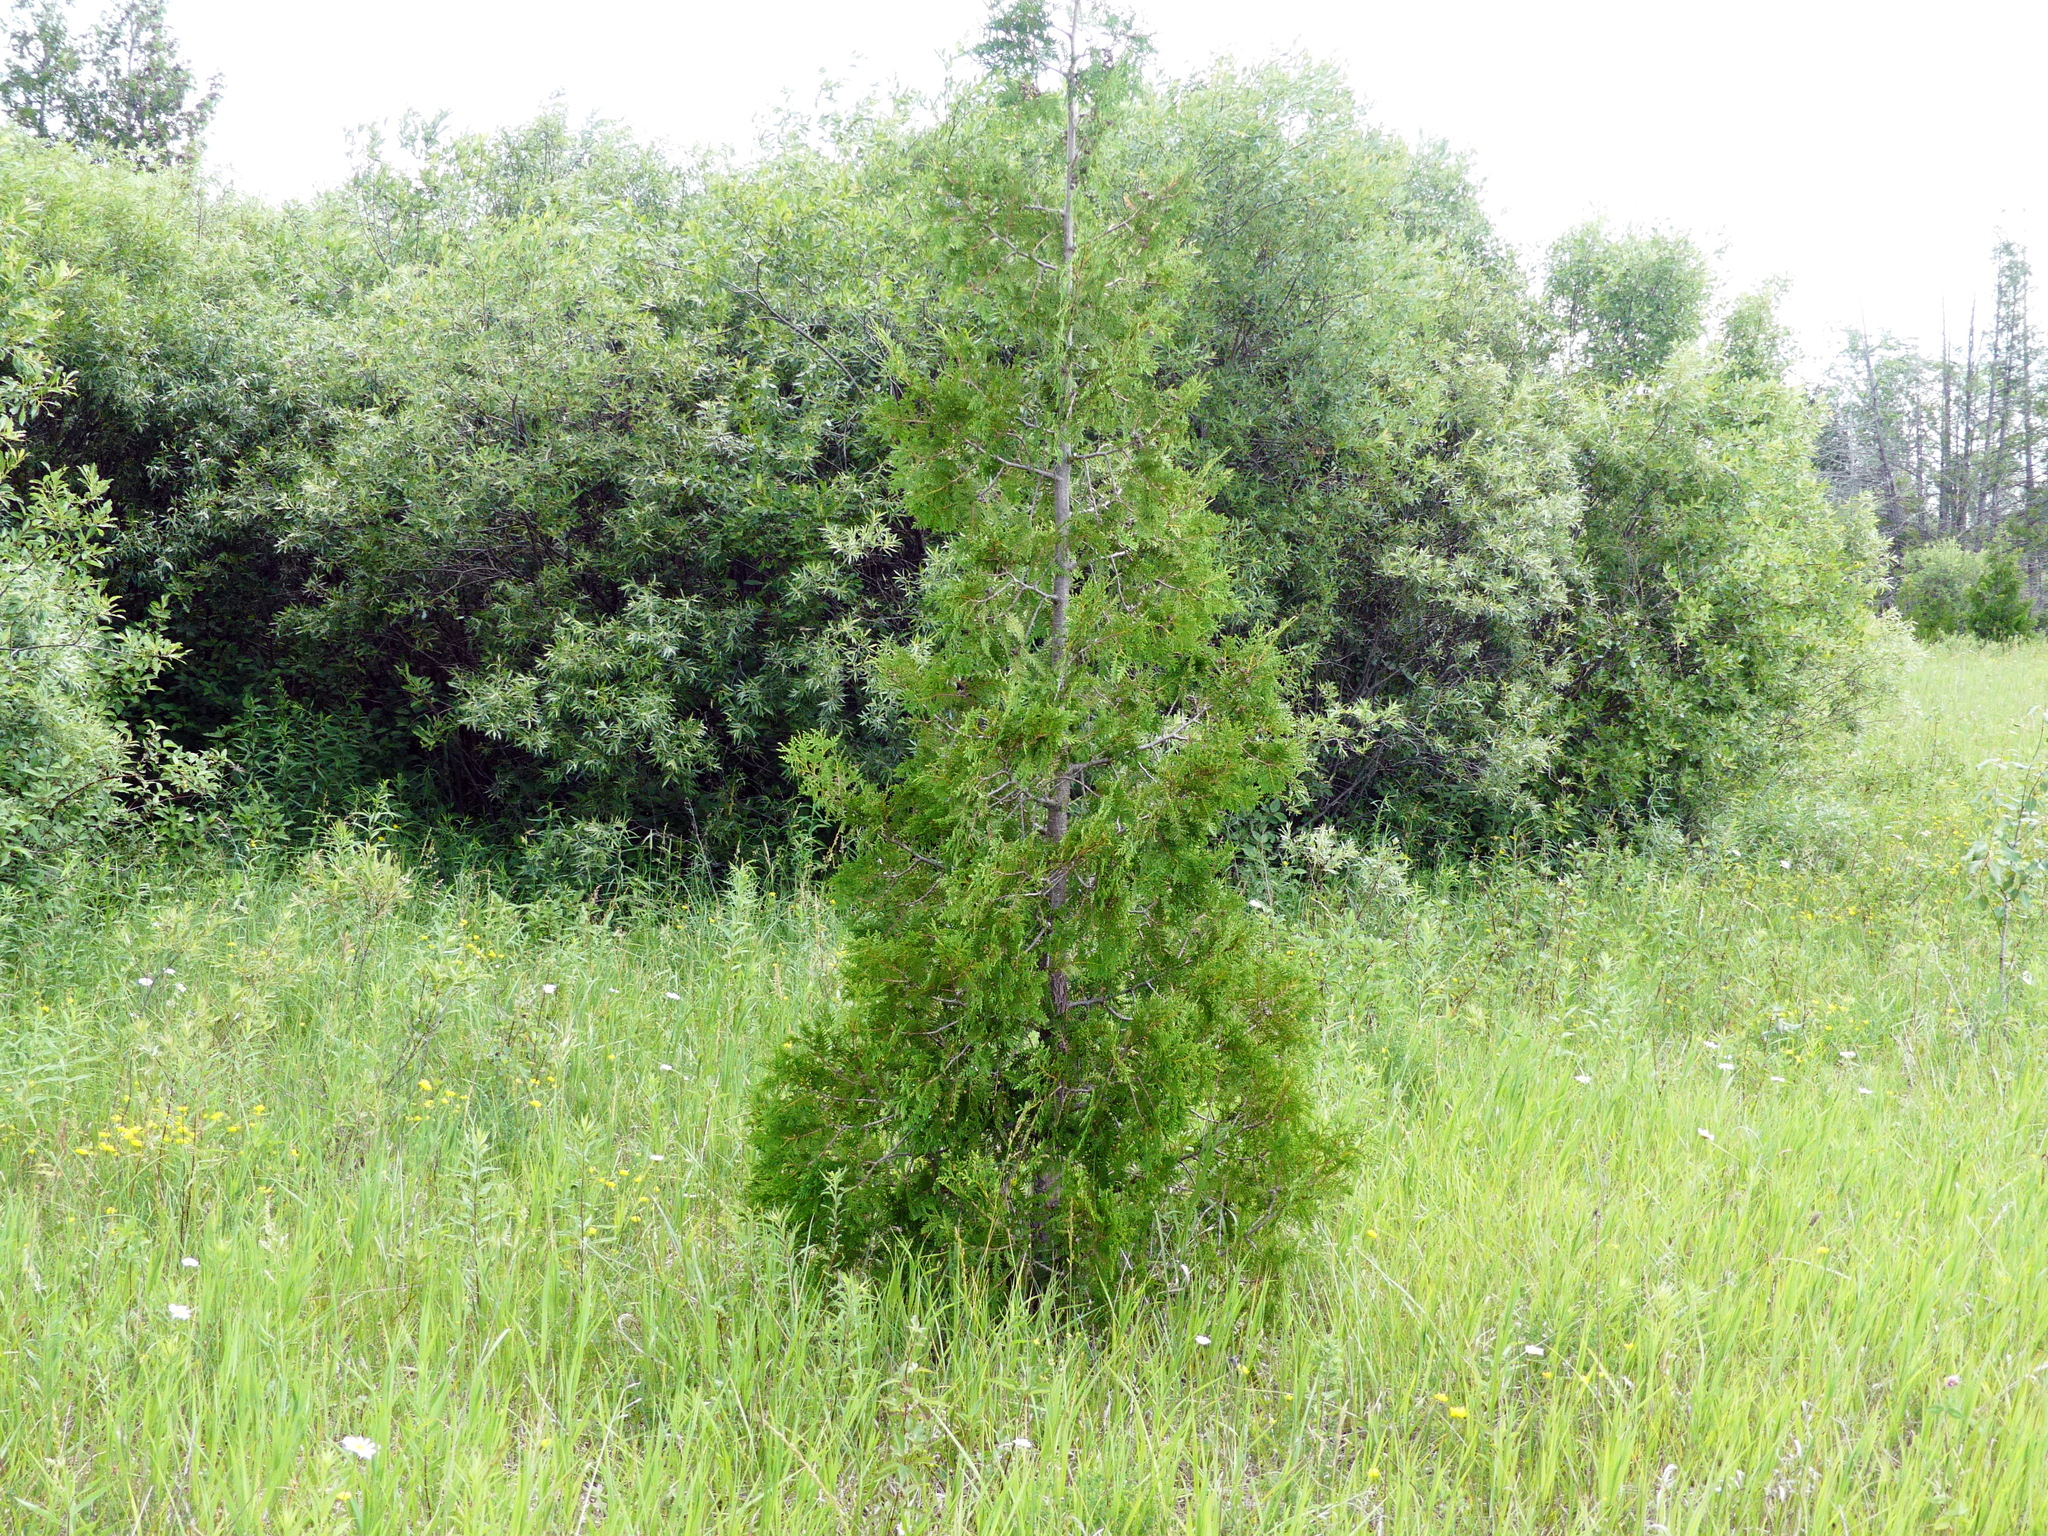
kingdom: Plantae
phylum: Tracheophyta
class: Pinopsida
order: Pinales
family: Cupressaceae
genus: Thuja
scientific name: Thuja occidentalis
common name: Northern white-cedar
